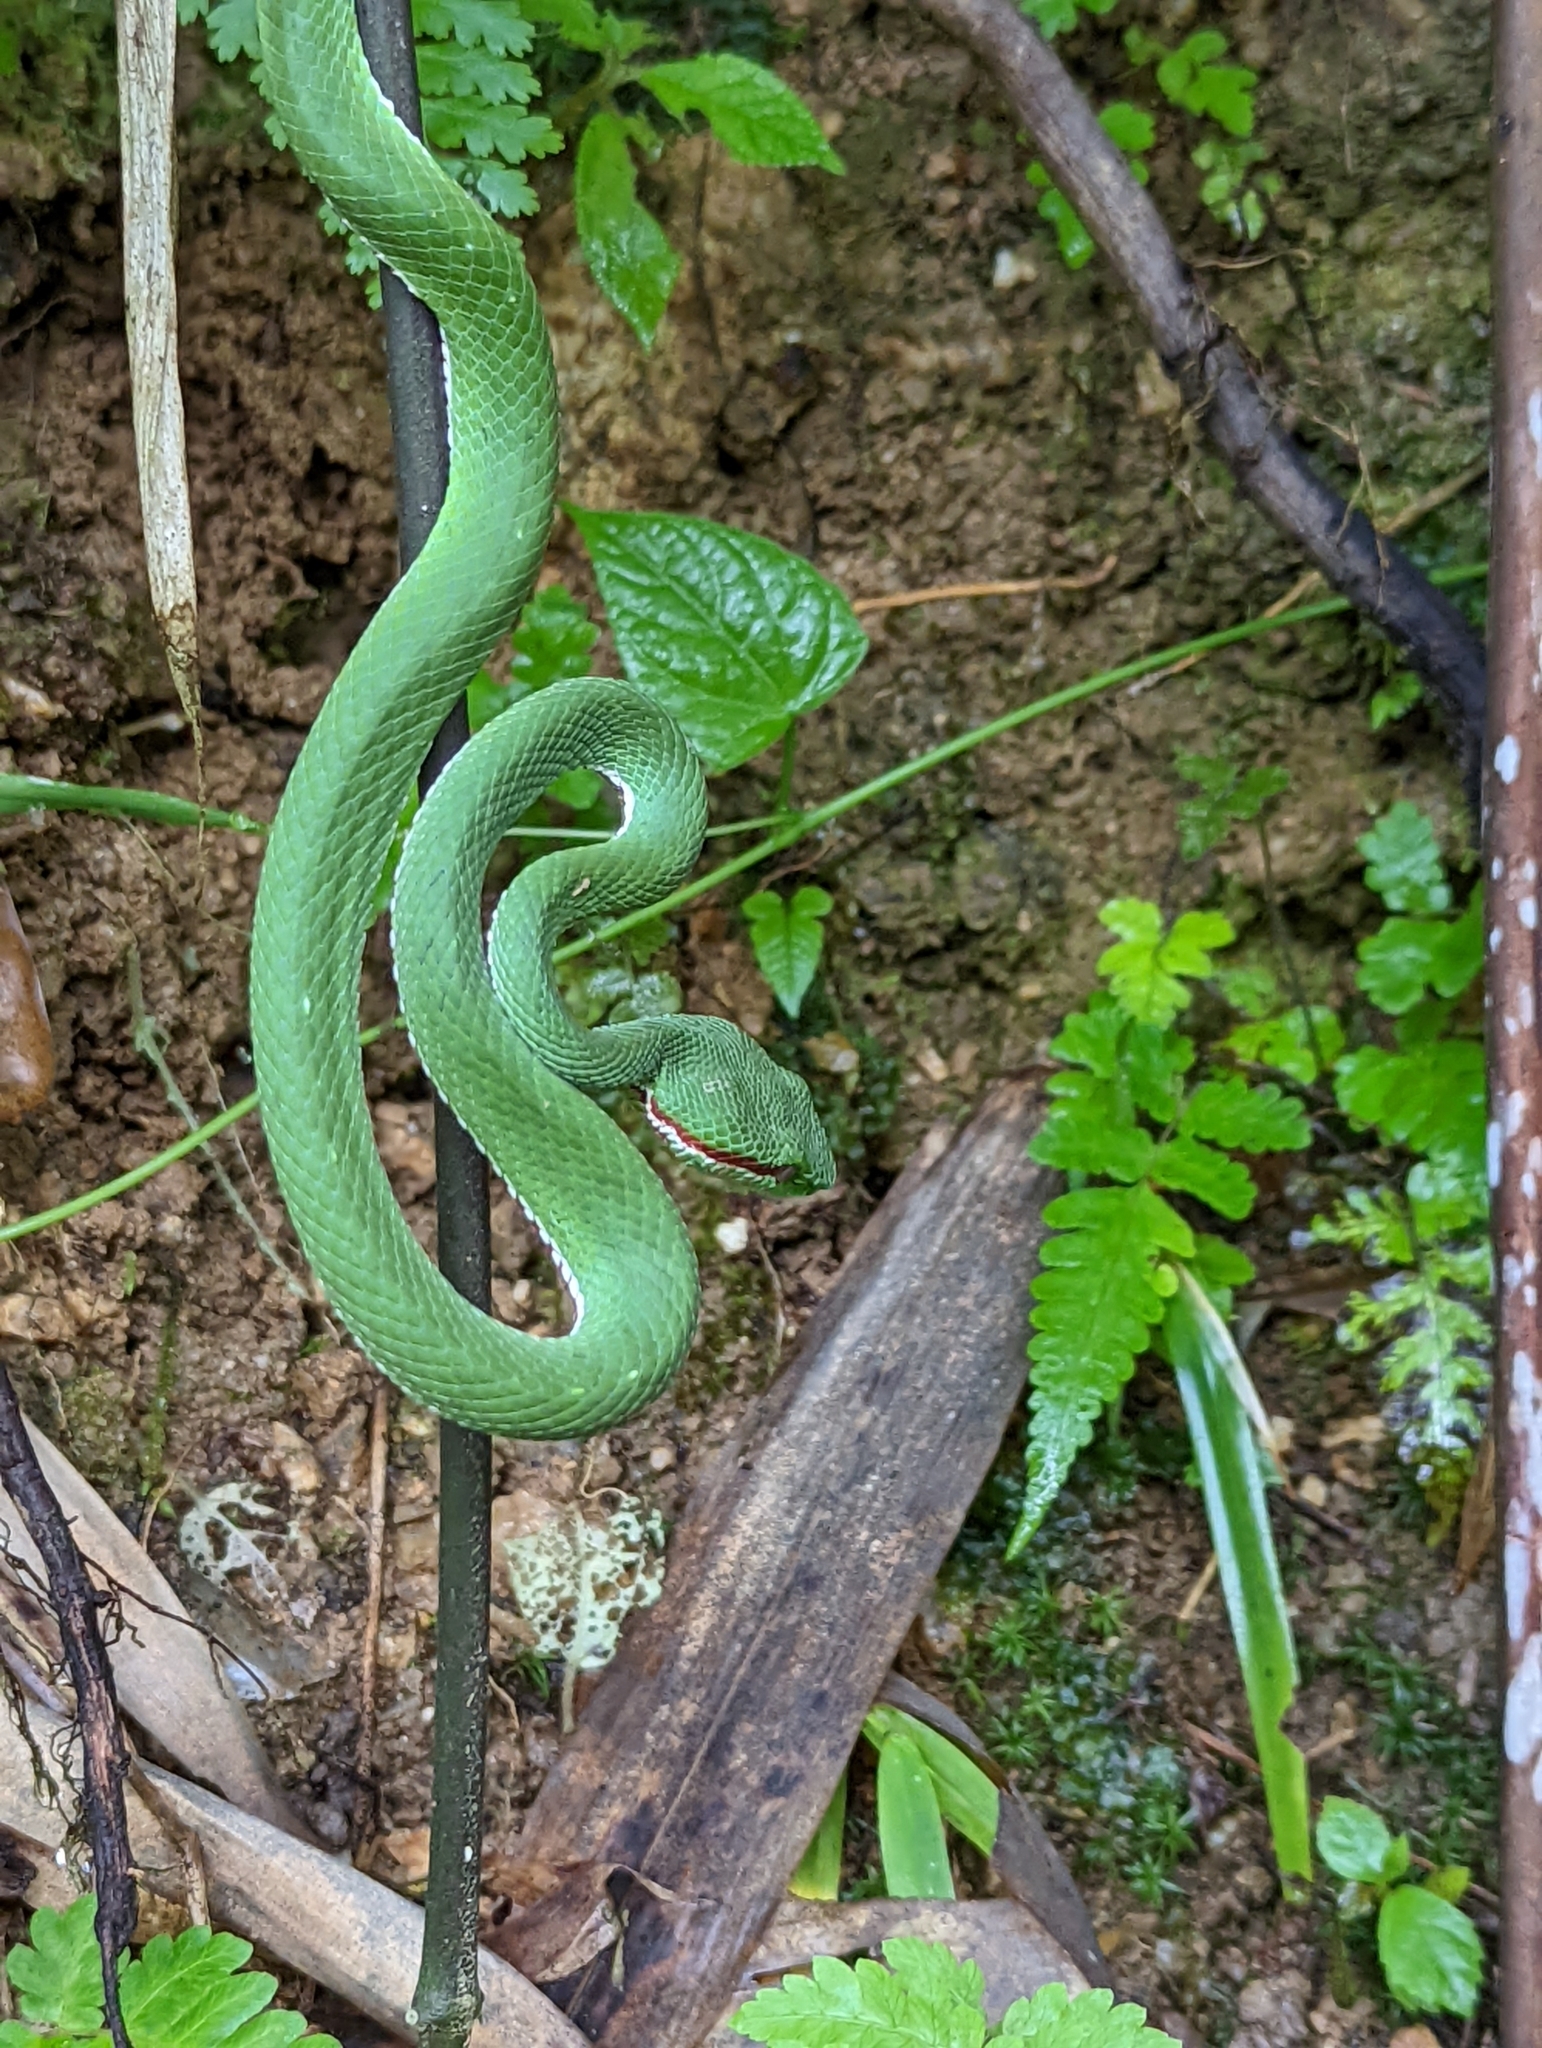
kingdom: Animalia
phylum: Chordata
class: Squamata
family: Viperidae
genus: Trimeresurus
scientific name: Trimeresurus popeiorum
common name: Pope's bamboo pit viper
